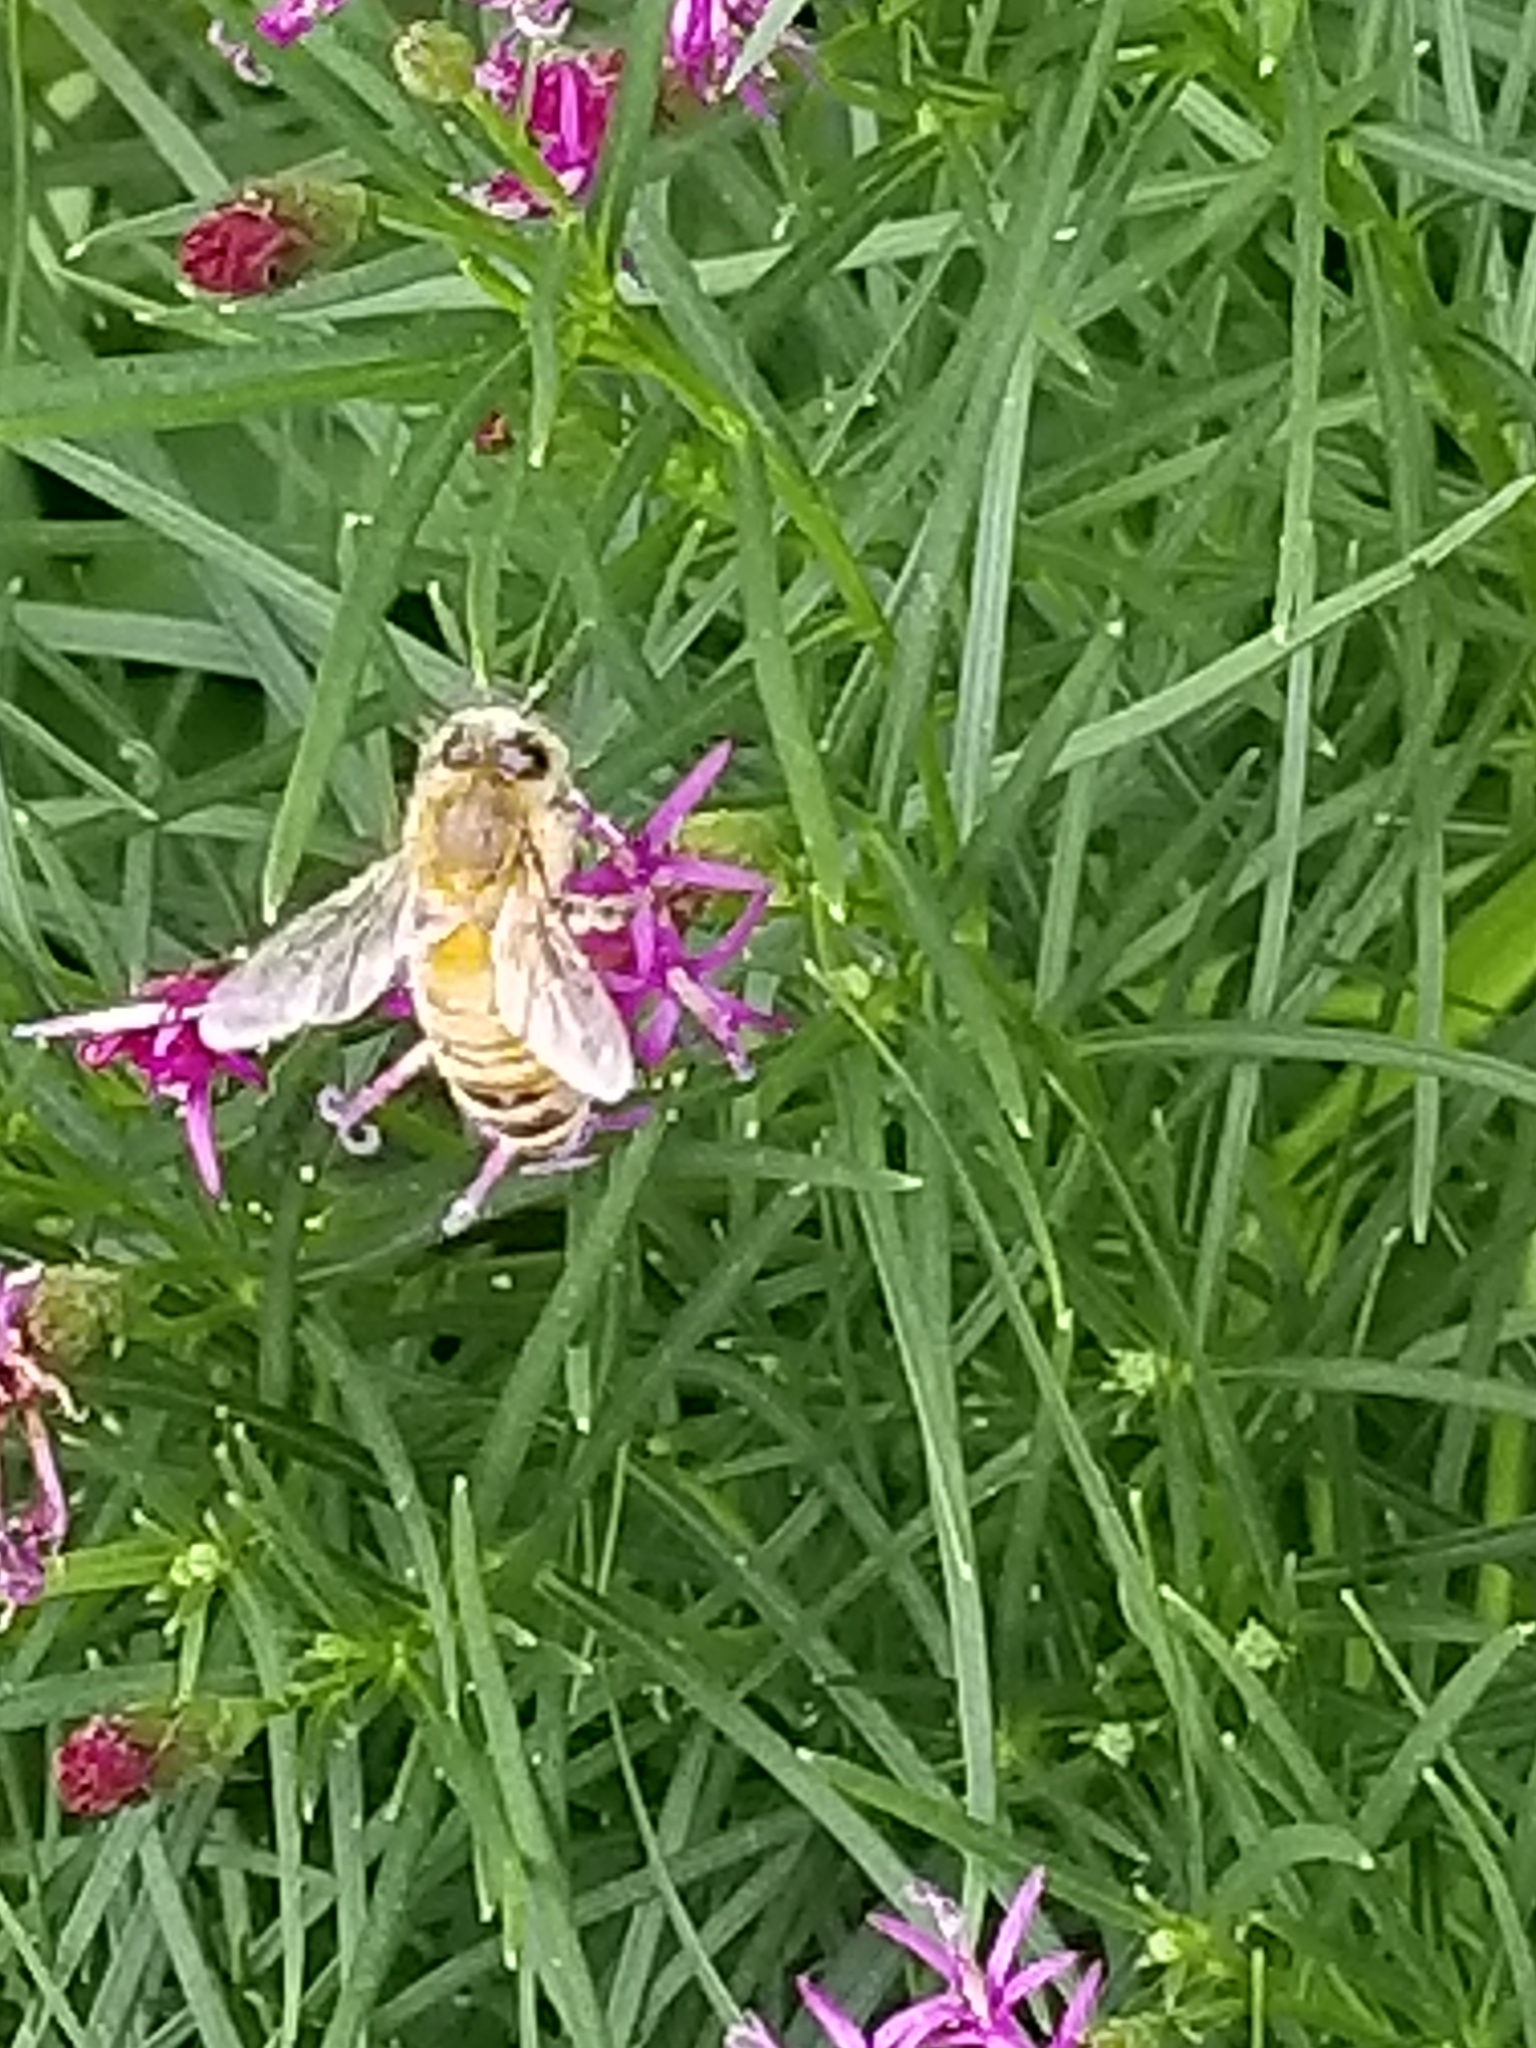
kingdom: Animalia
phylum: Arthropoda
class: Insecta
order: Hymenoptera
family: Apidae
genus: Apis
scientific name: Apis mellifera
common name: Honey bee
